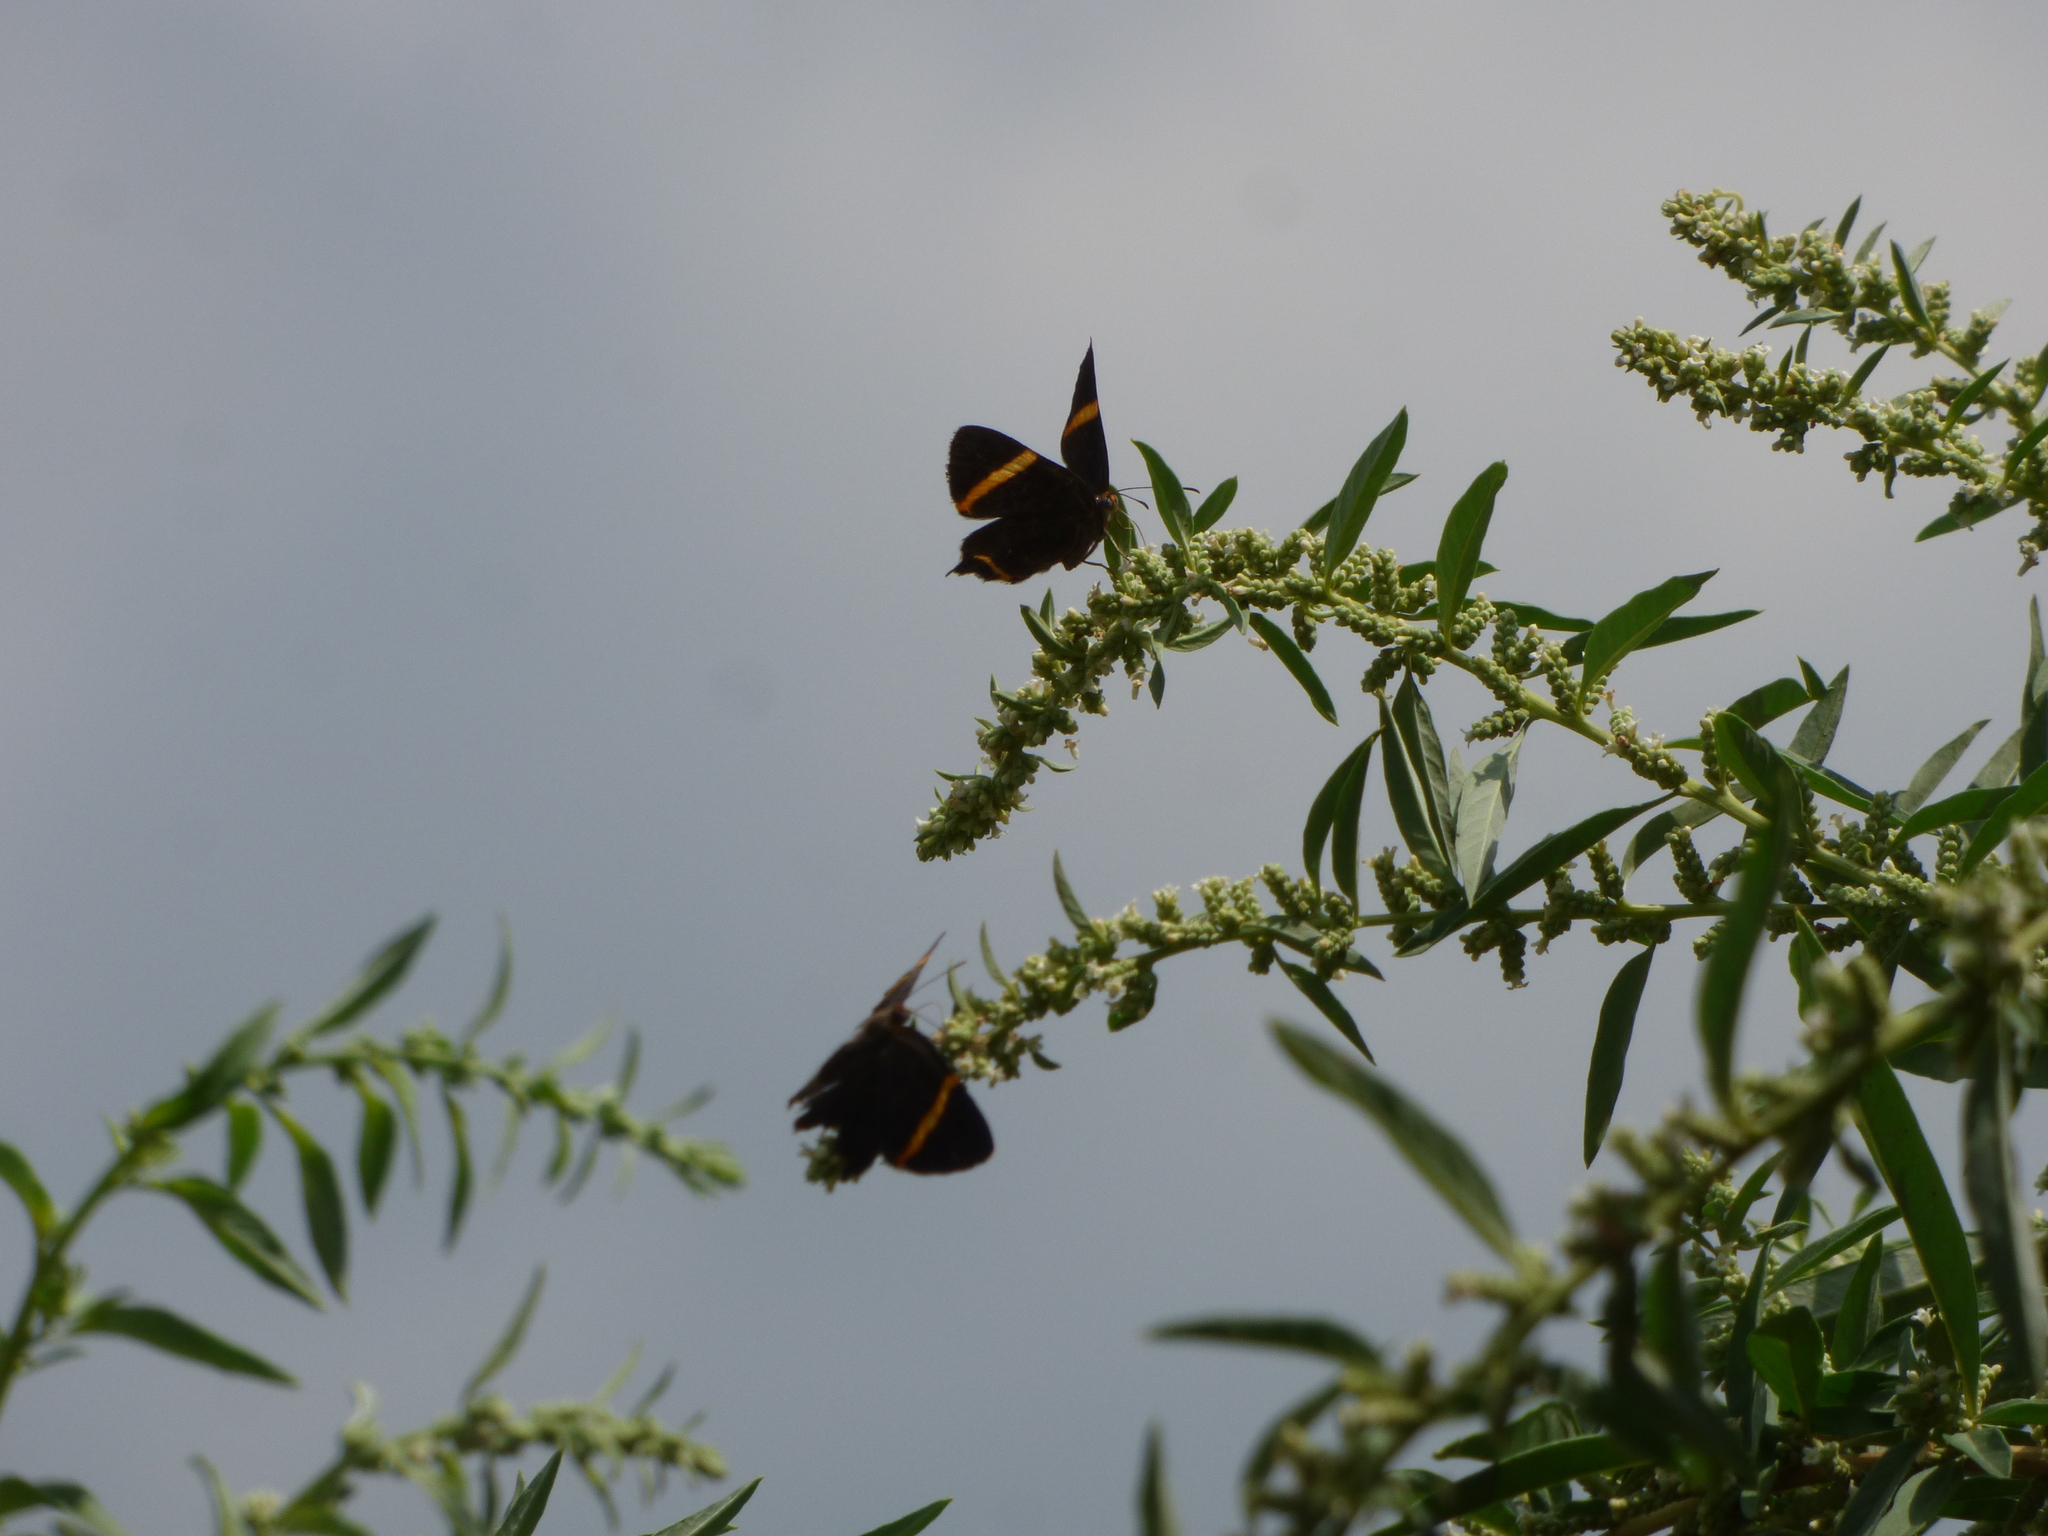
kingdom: Animalia
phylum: Arthropoda
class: Insecta
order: Lepidoptera
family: Riodinidae
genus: Riodina
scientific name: Riodina lysippoides
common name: Little dancer metalmark
